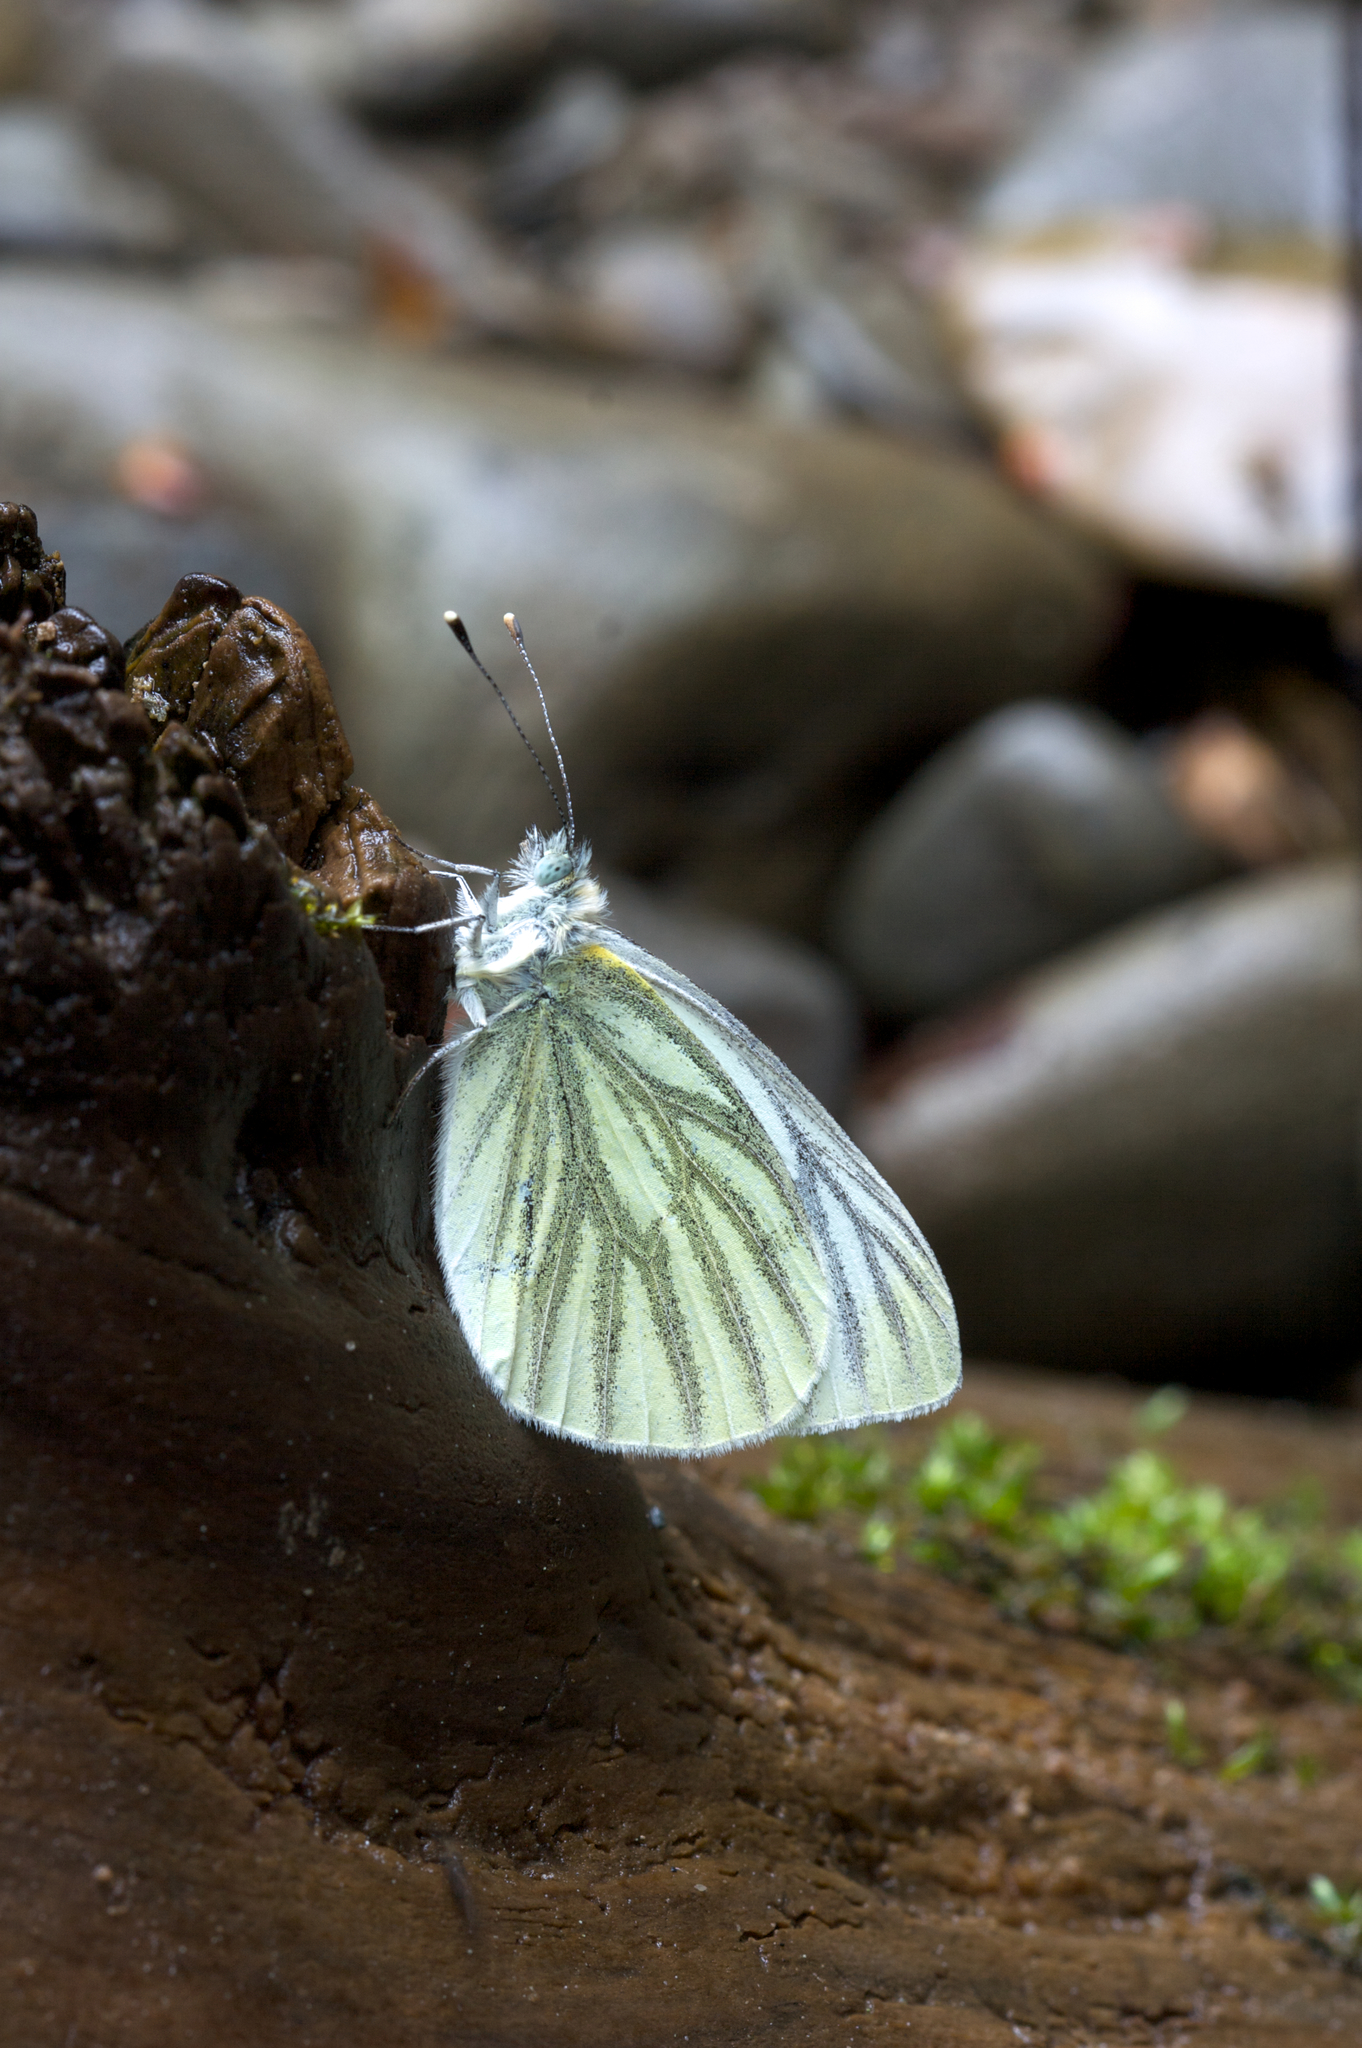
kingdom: Animalia
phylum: Arthropoda
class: Insecta
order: Lepidoptera
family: Pieridae
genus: Pieris
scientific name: Pieris napi
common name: Green-veined white
